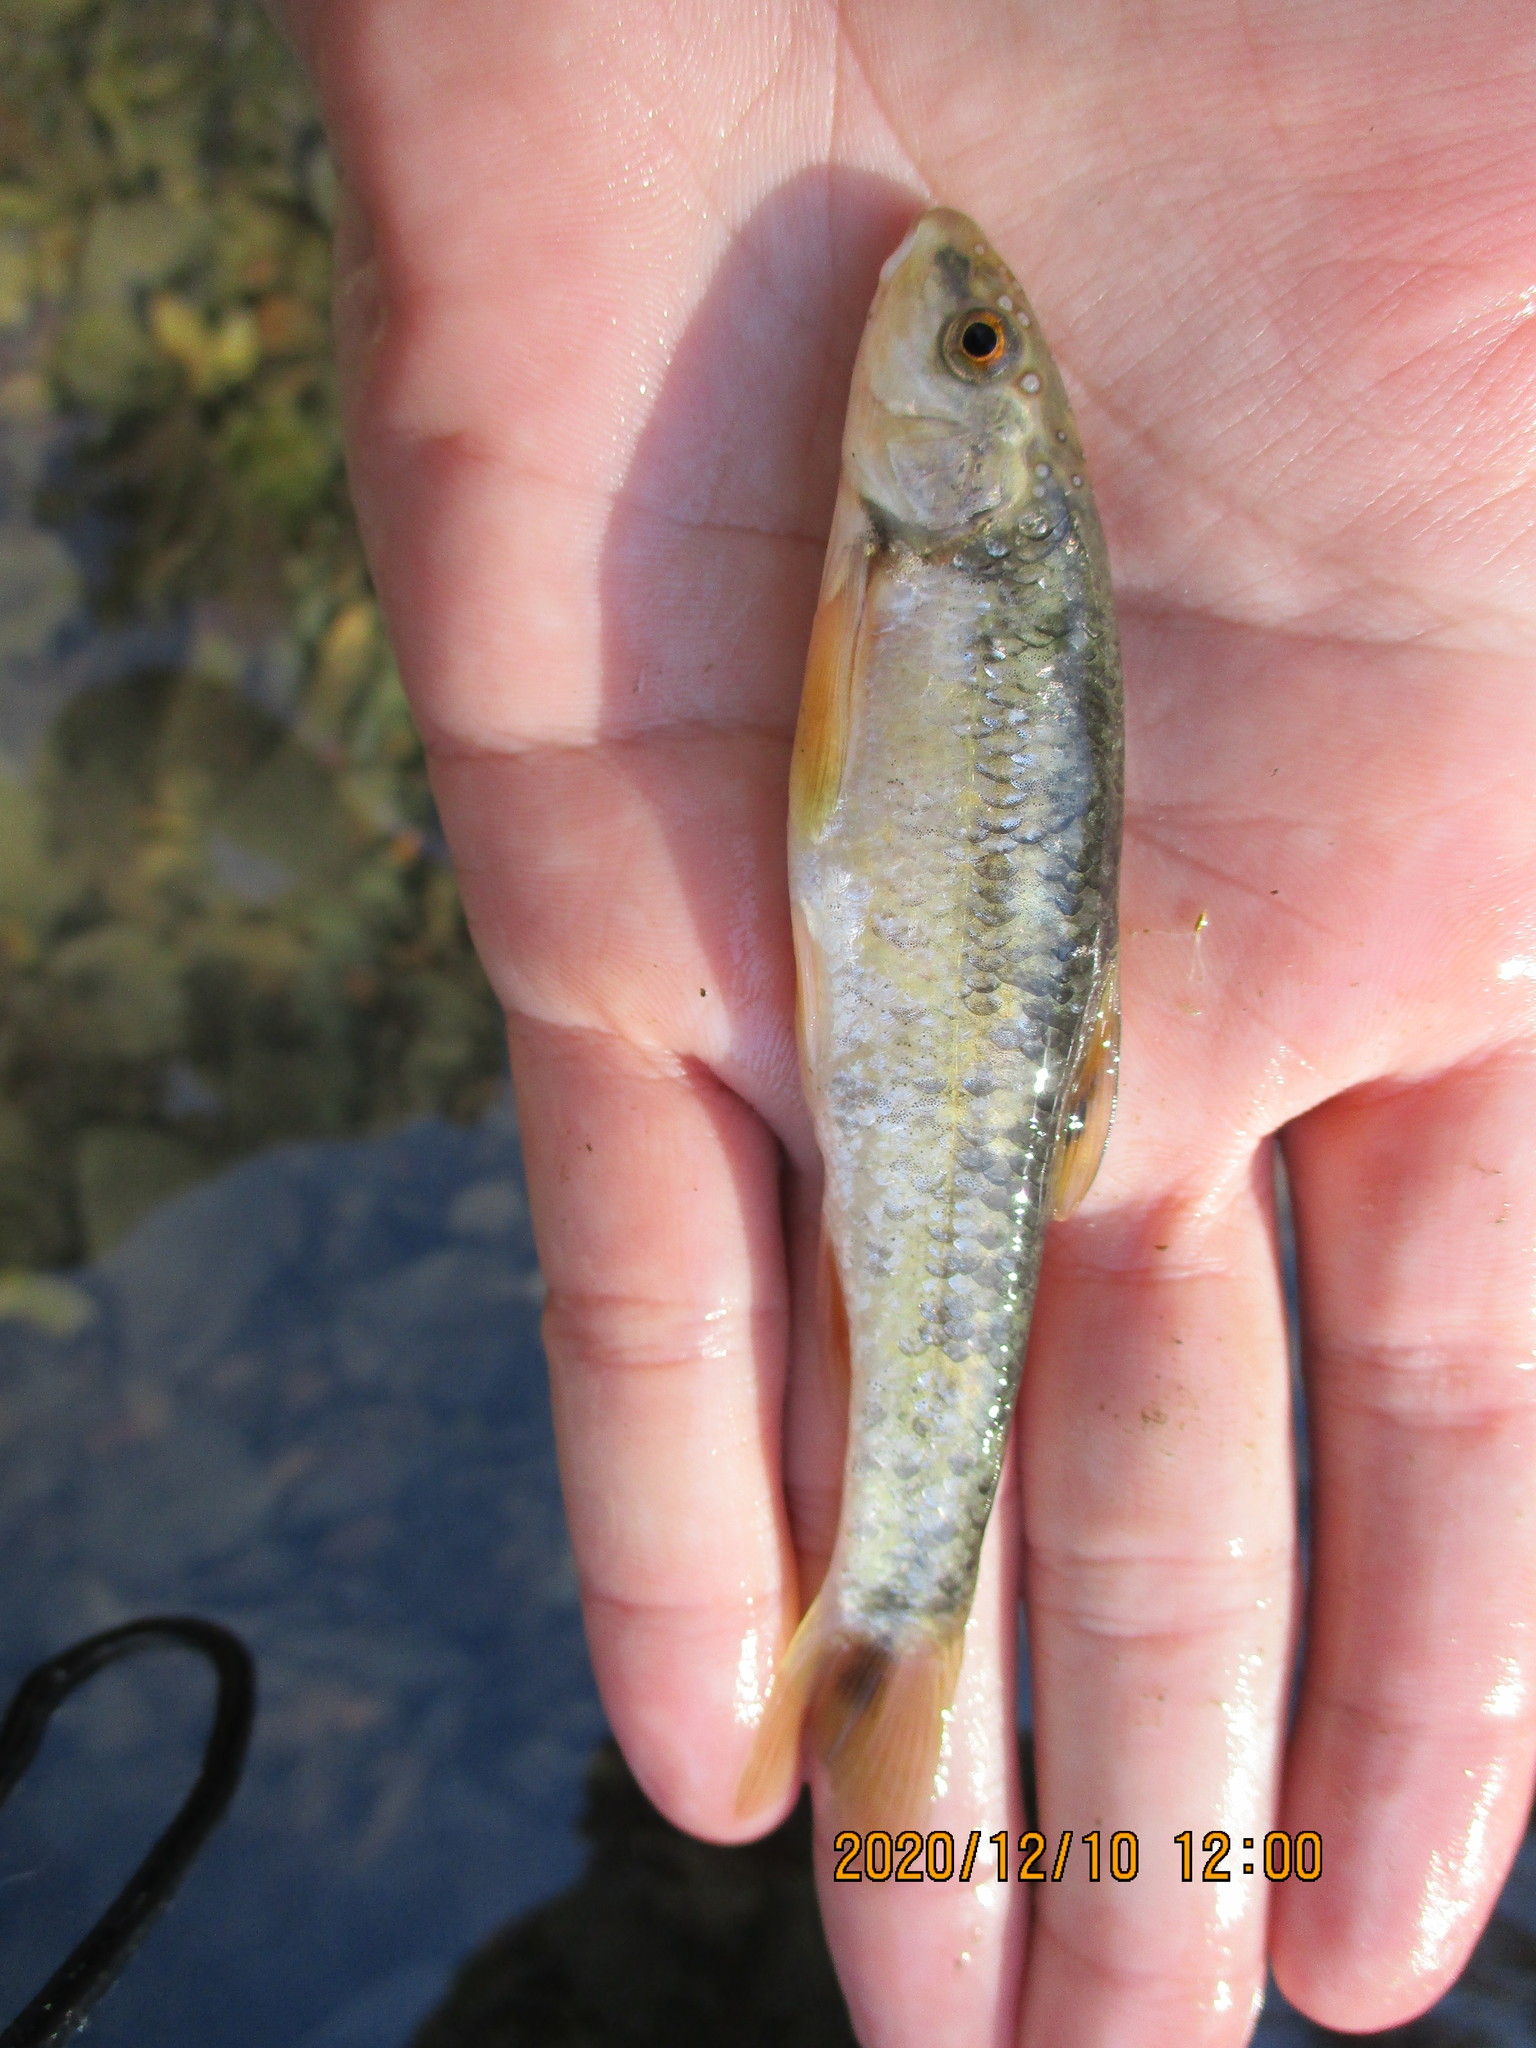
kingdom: Animalia
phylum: Chordata
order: Cypriniformes
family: Cyprinidae
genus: Campostoma
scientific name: Campostoma anomalum
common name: Central stoneroller
